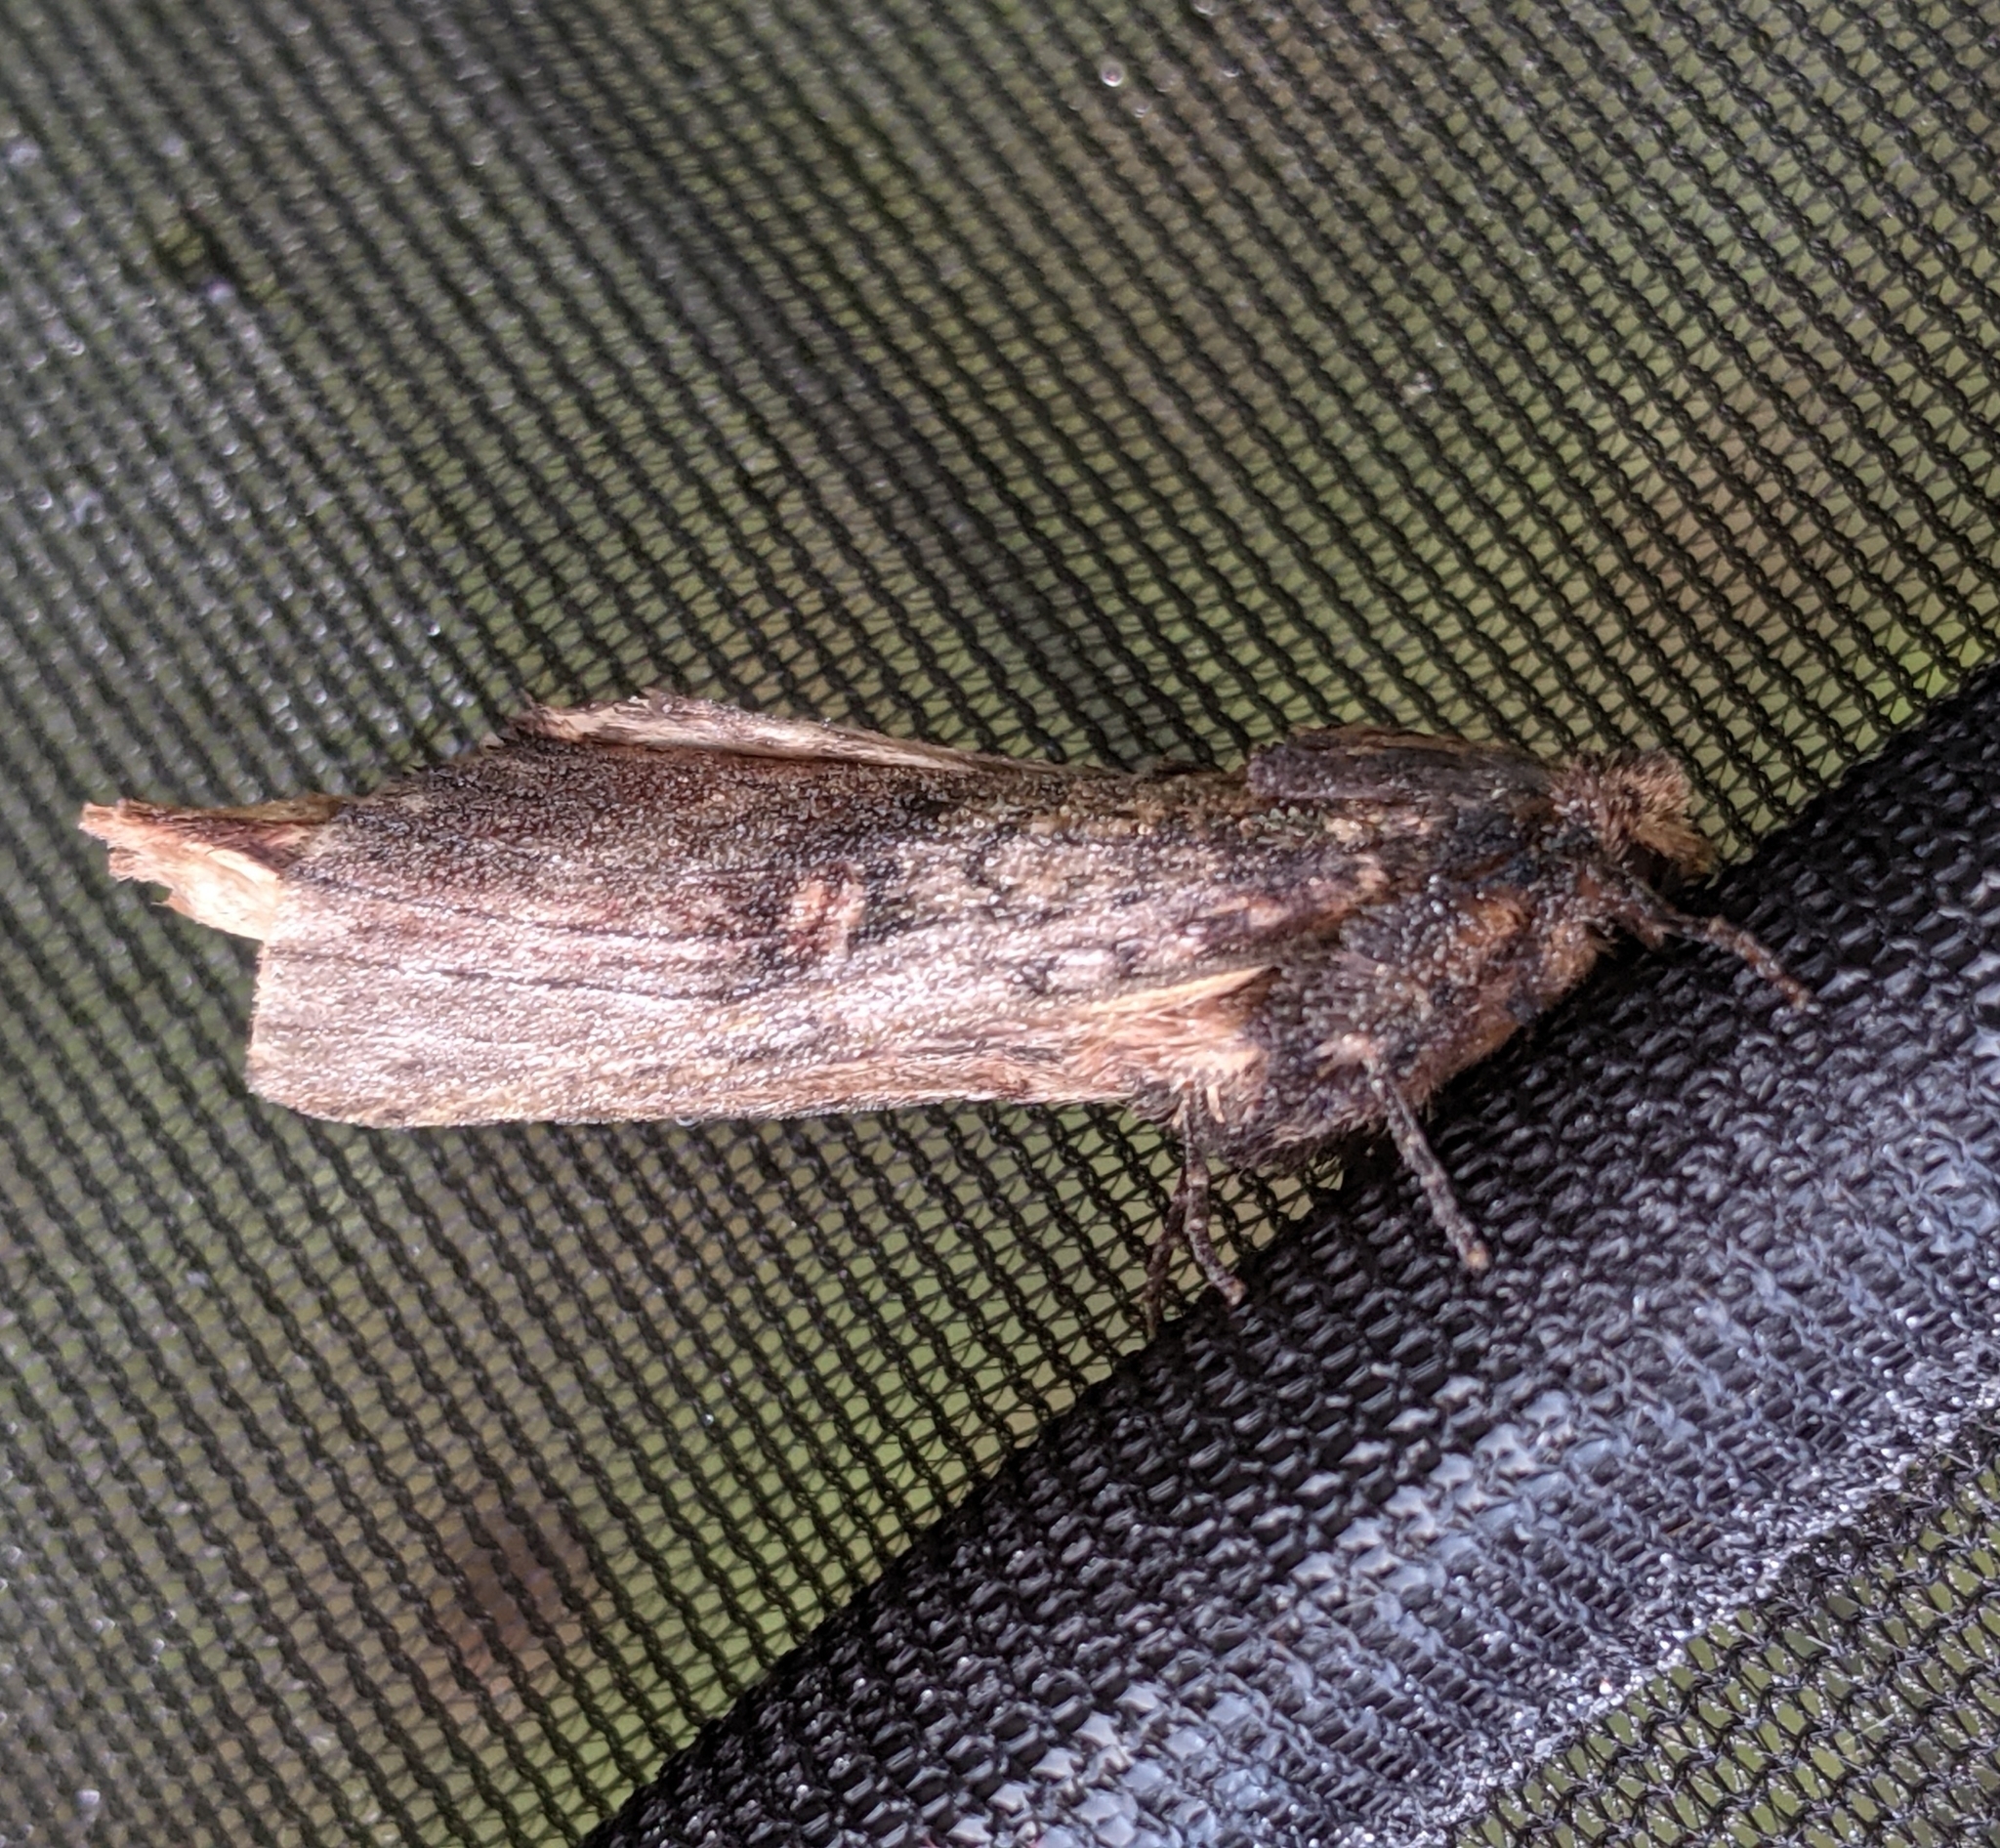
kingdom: Animalia
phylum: Arthropoda
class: Insecta
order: Lepidoptera
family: Notodontidae
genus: Schizura
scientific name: Schizura ipomaeae
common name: Morning-glory prominent
